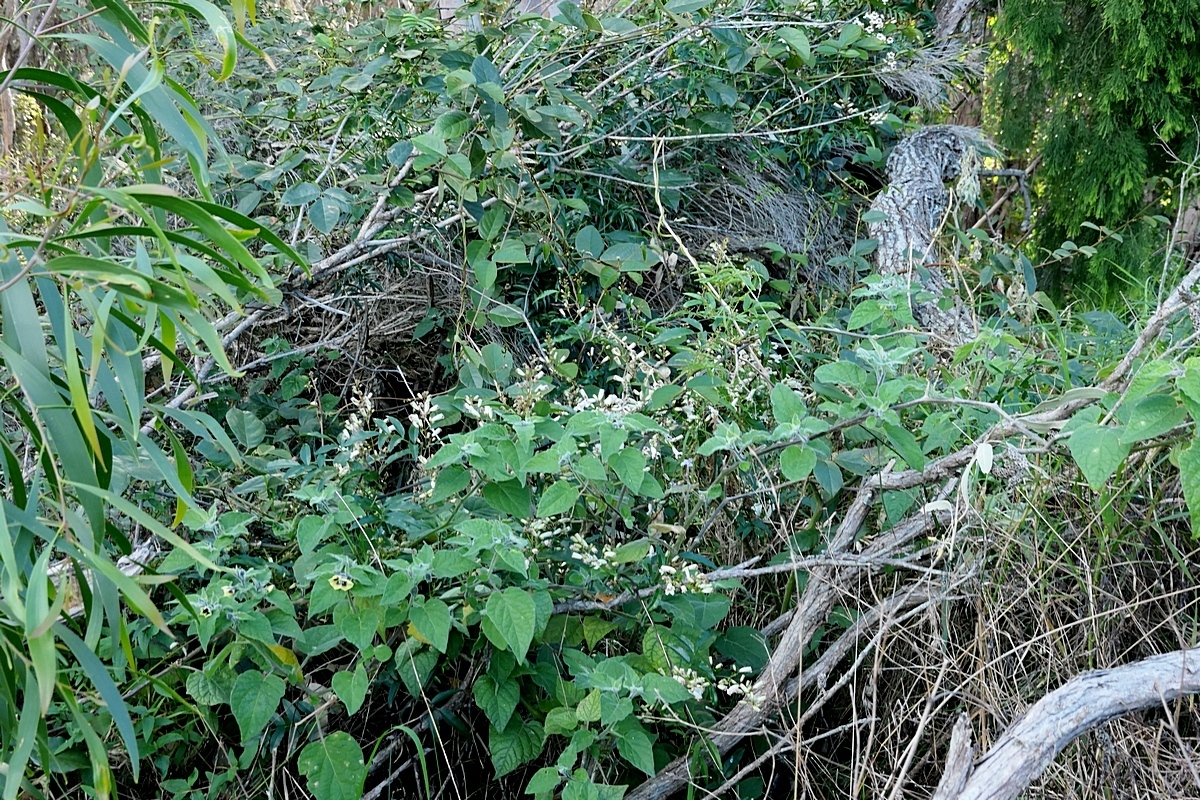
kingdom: Plantae
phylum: Tracheophyta
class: Magnoliopsida
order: Lamiales
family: Bignoniaceae
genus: Pandorea
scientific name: Pandorea pandorana
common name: Wonga-wonga-vine
